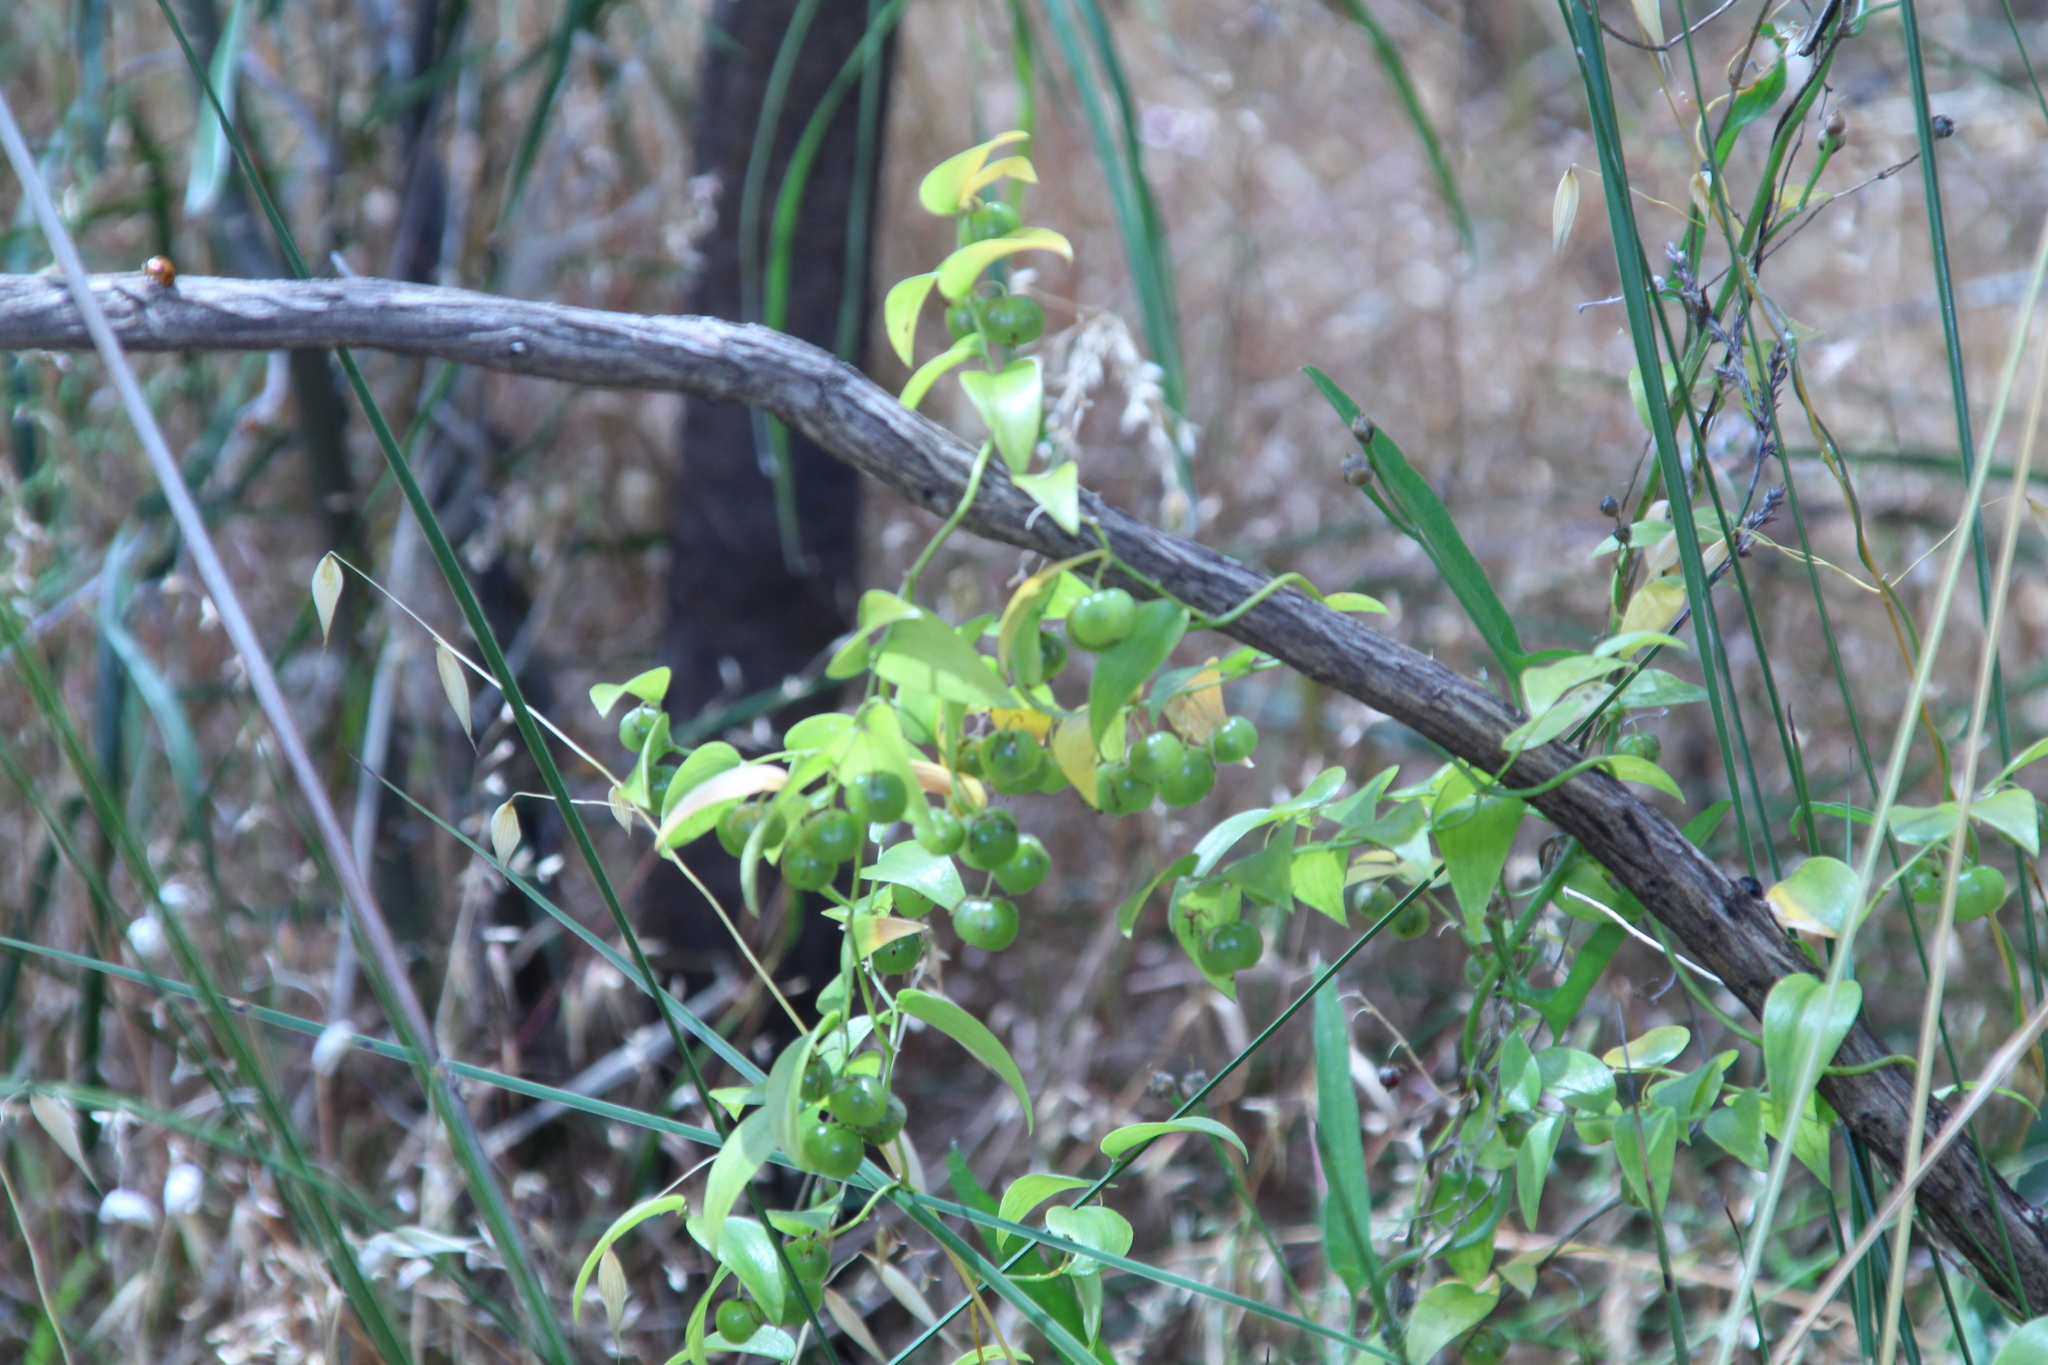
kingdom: Plantae
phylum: Tracheophyta
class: Liliopsida
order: Asparagales
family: Asparagaceae
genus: Asparagus
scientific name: Asparagus asparagoides
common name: African asparagus fern
